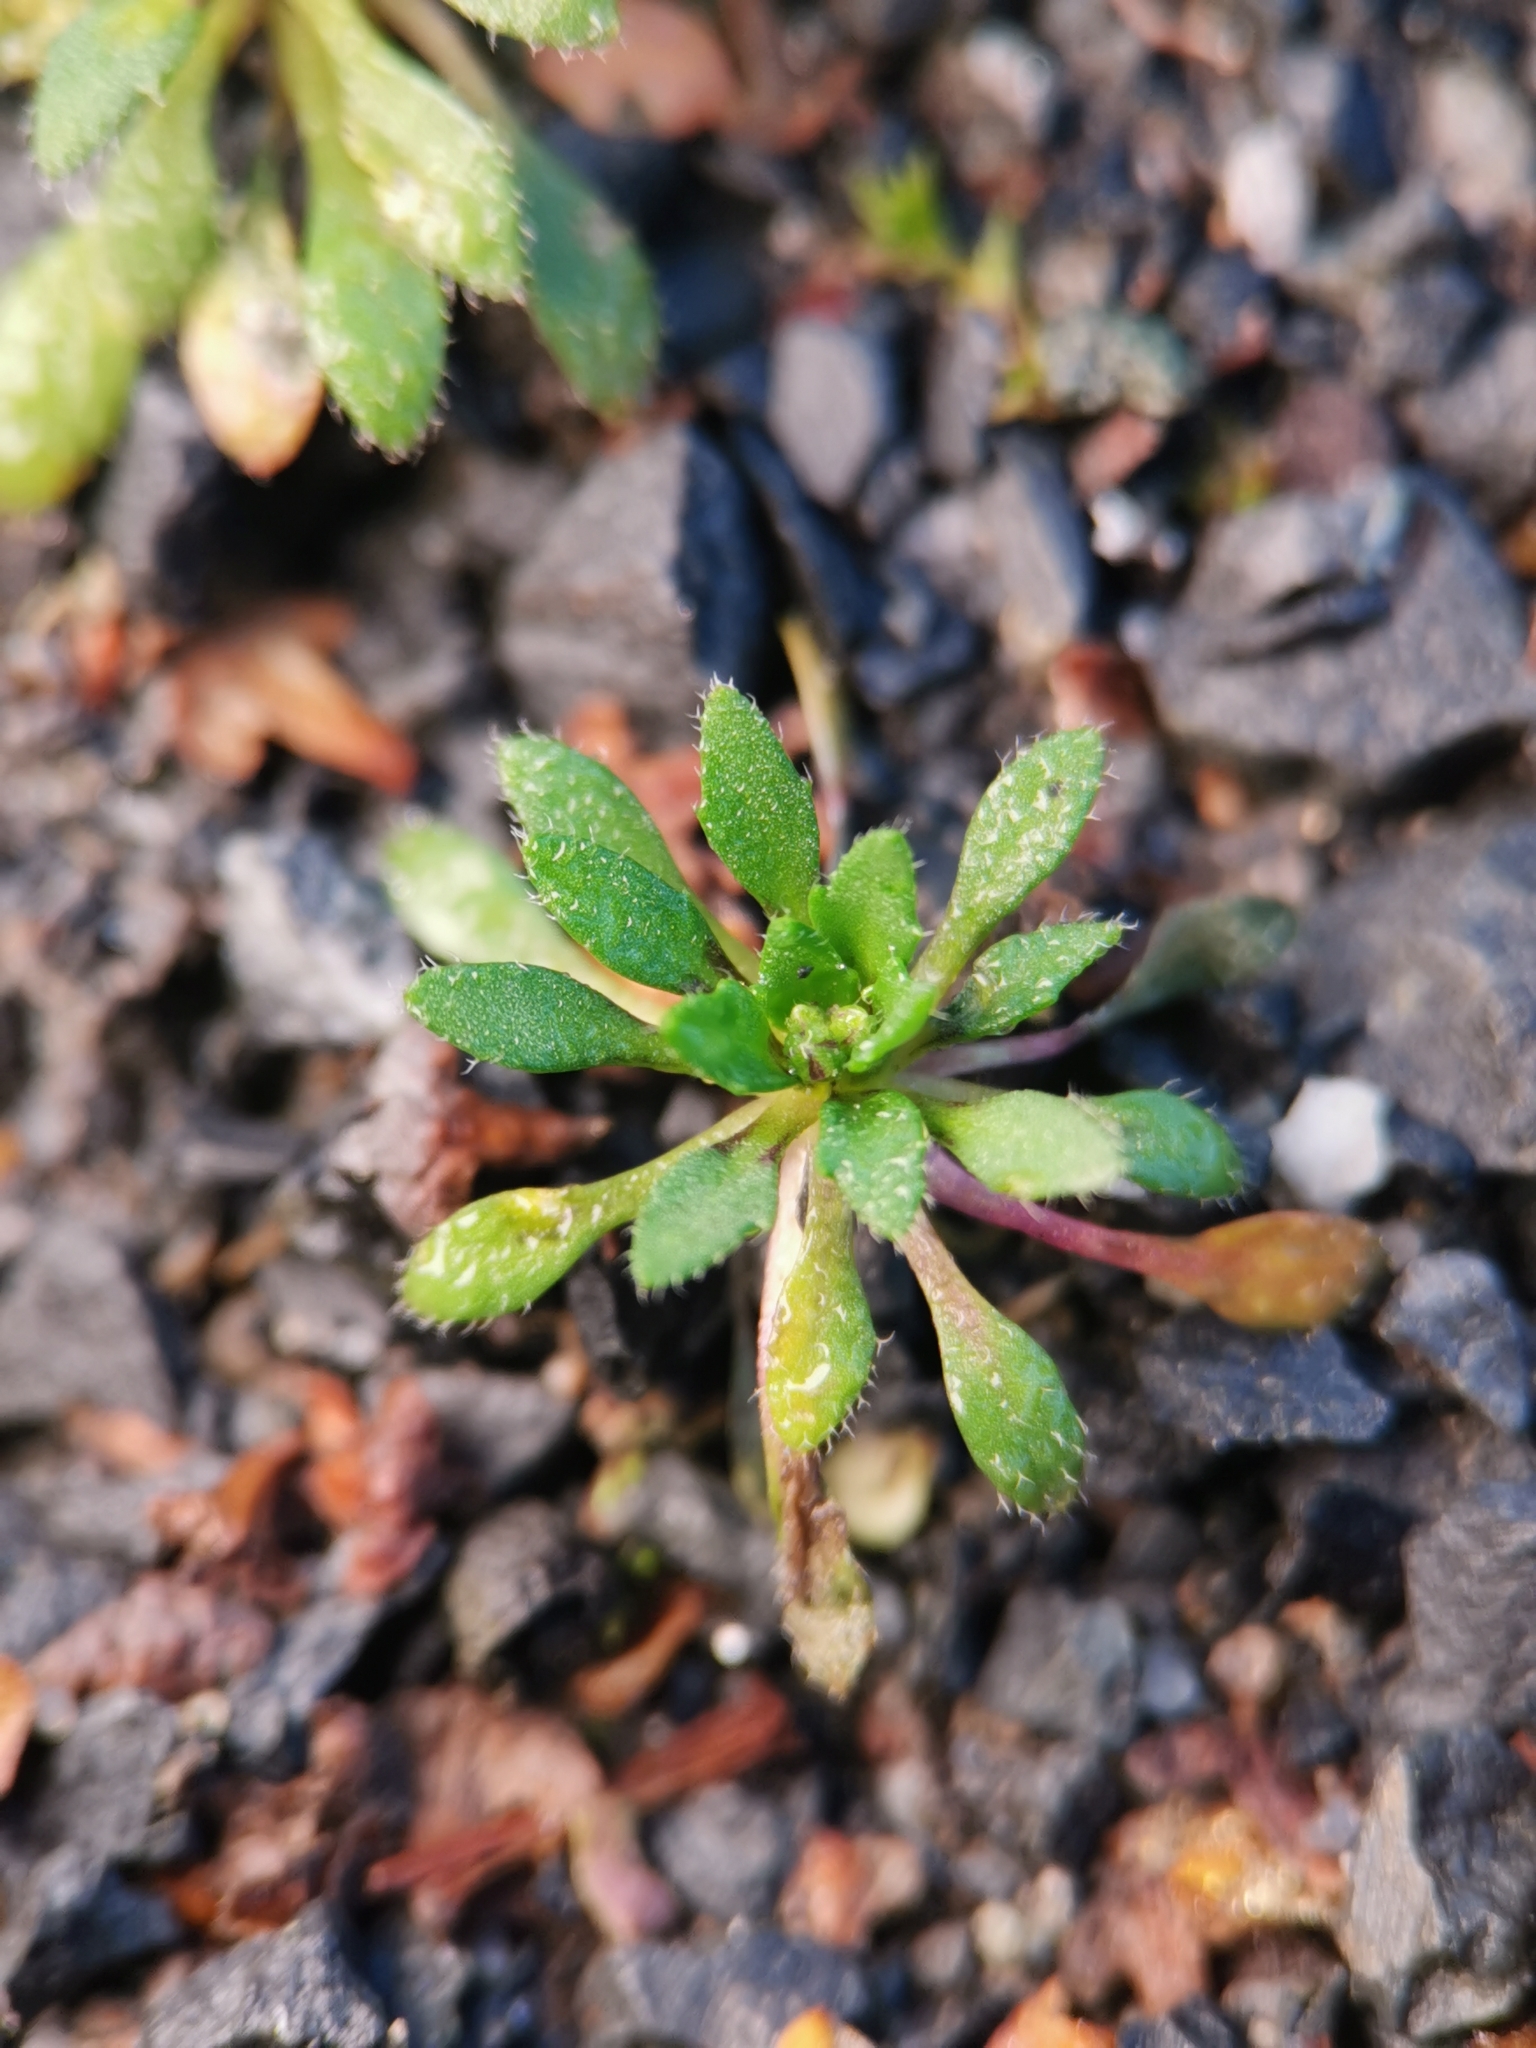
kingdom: Plantae
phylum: Tracheophyta
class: Magnoliopsida
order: Brassicales
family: Brassicaceae
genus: Draba
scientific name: Draba verna
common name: Spring draba
